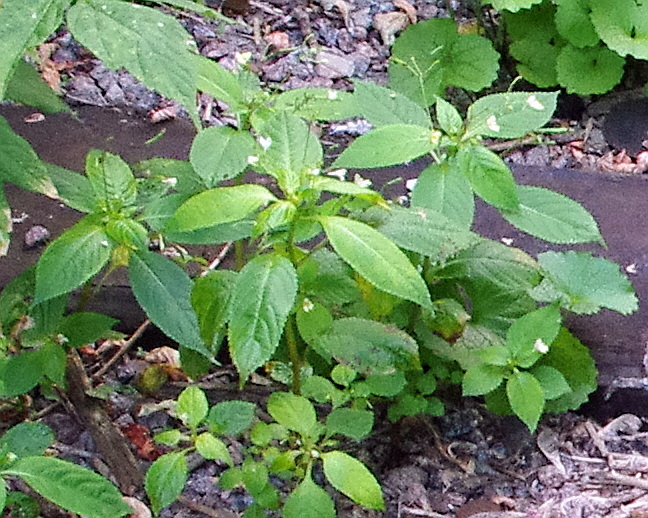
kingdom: Plantae
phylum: Tracheophyta
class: Magnoliopsida
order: Ericales
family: Balsaminaceae
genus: Impatiens
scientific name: Impatiens parviflora
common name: Small balsam
